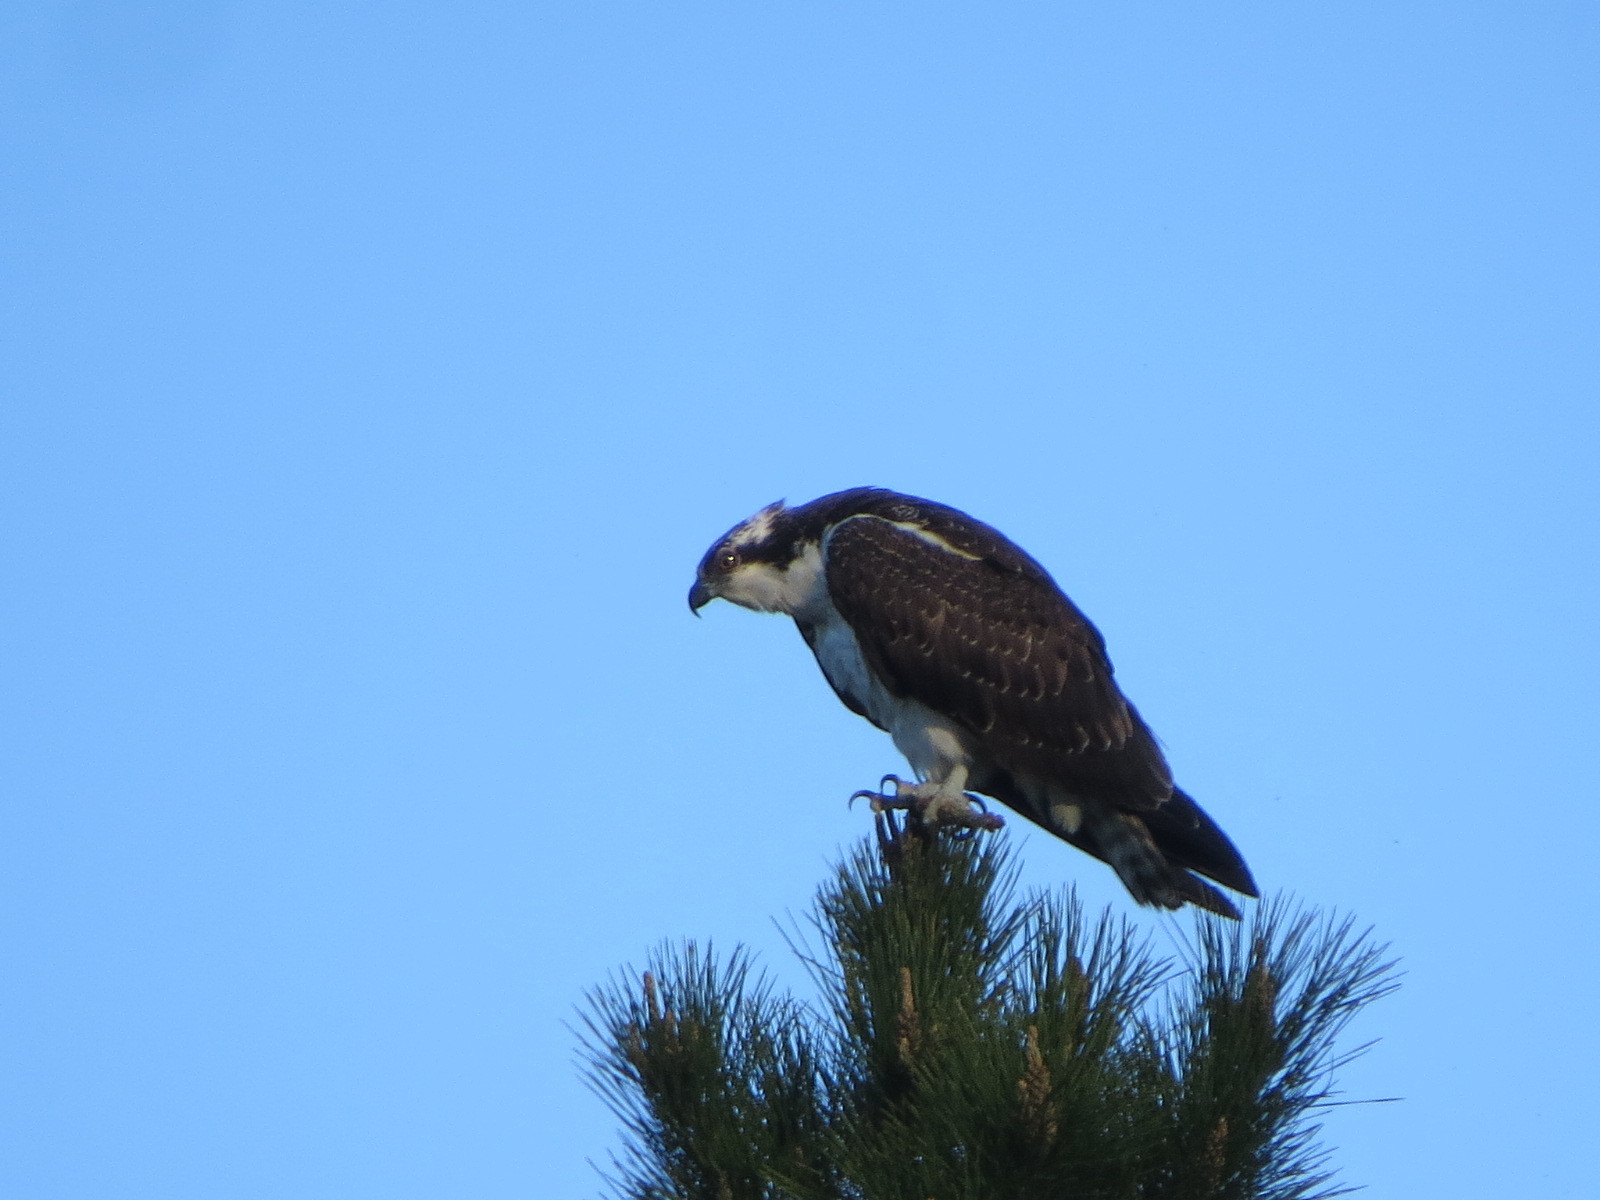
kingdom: Animalia
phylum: Chordata
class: Aves
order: Accipitriformes
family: Pandionidae
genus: Pandion
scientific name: Pandion haliaetus
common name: Osprey
